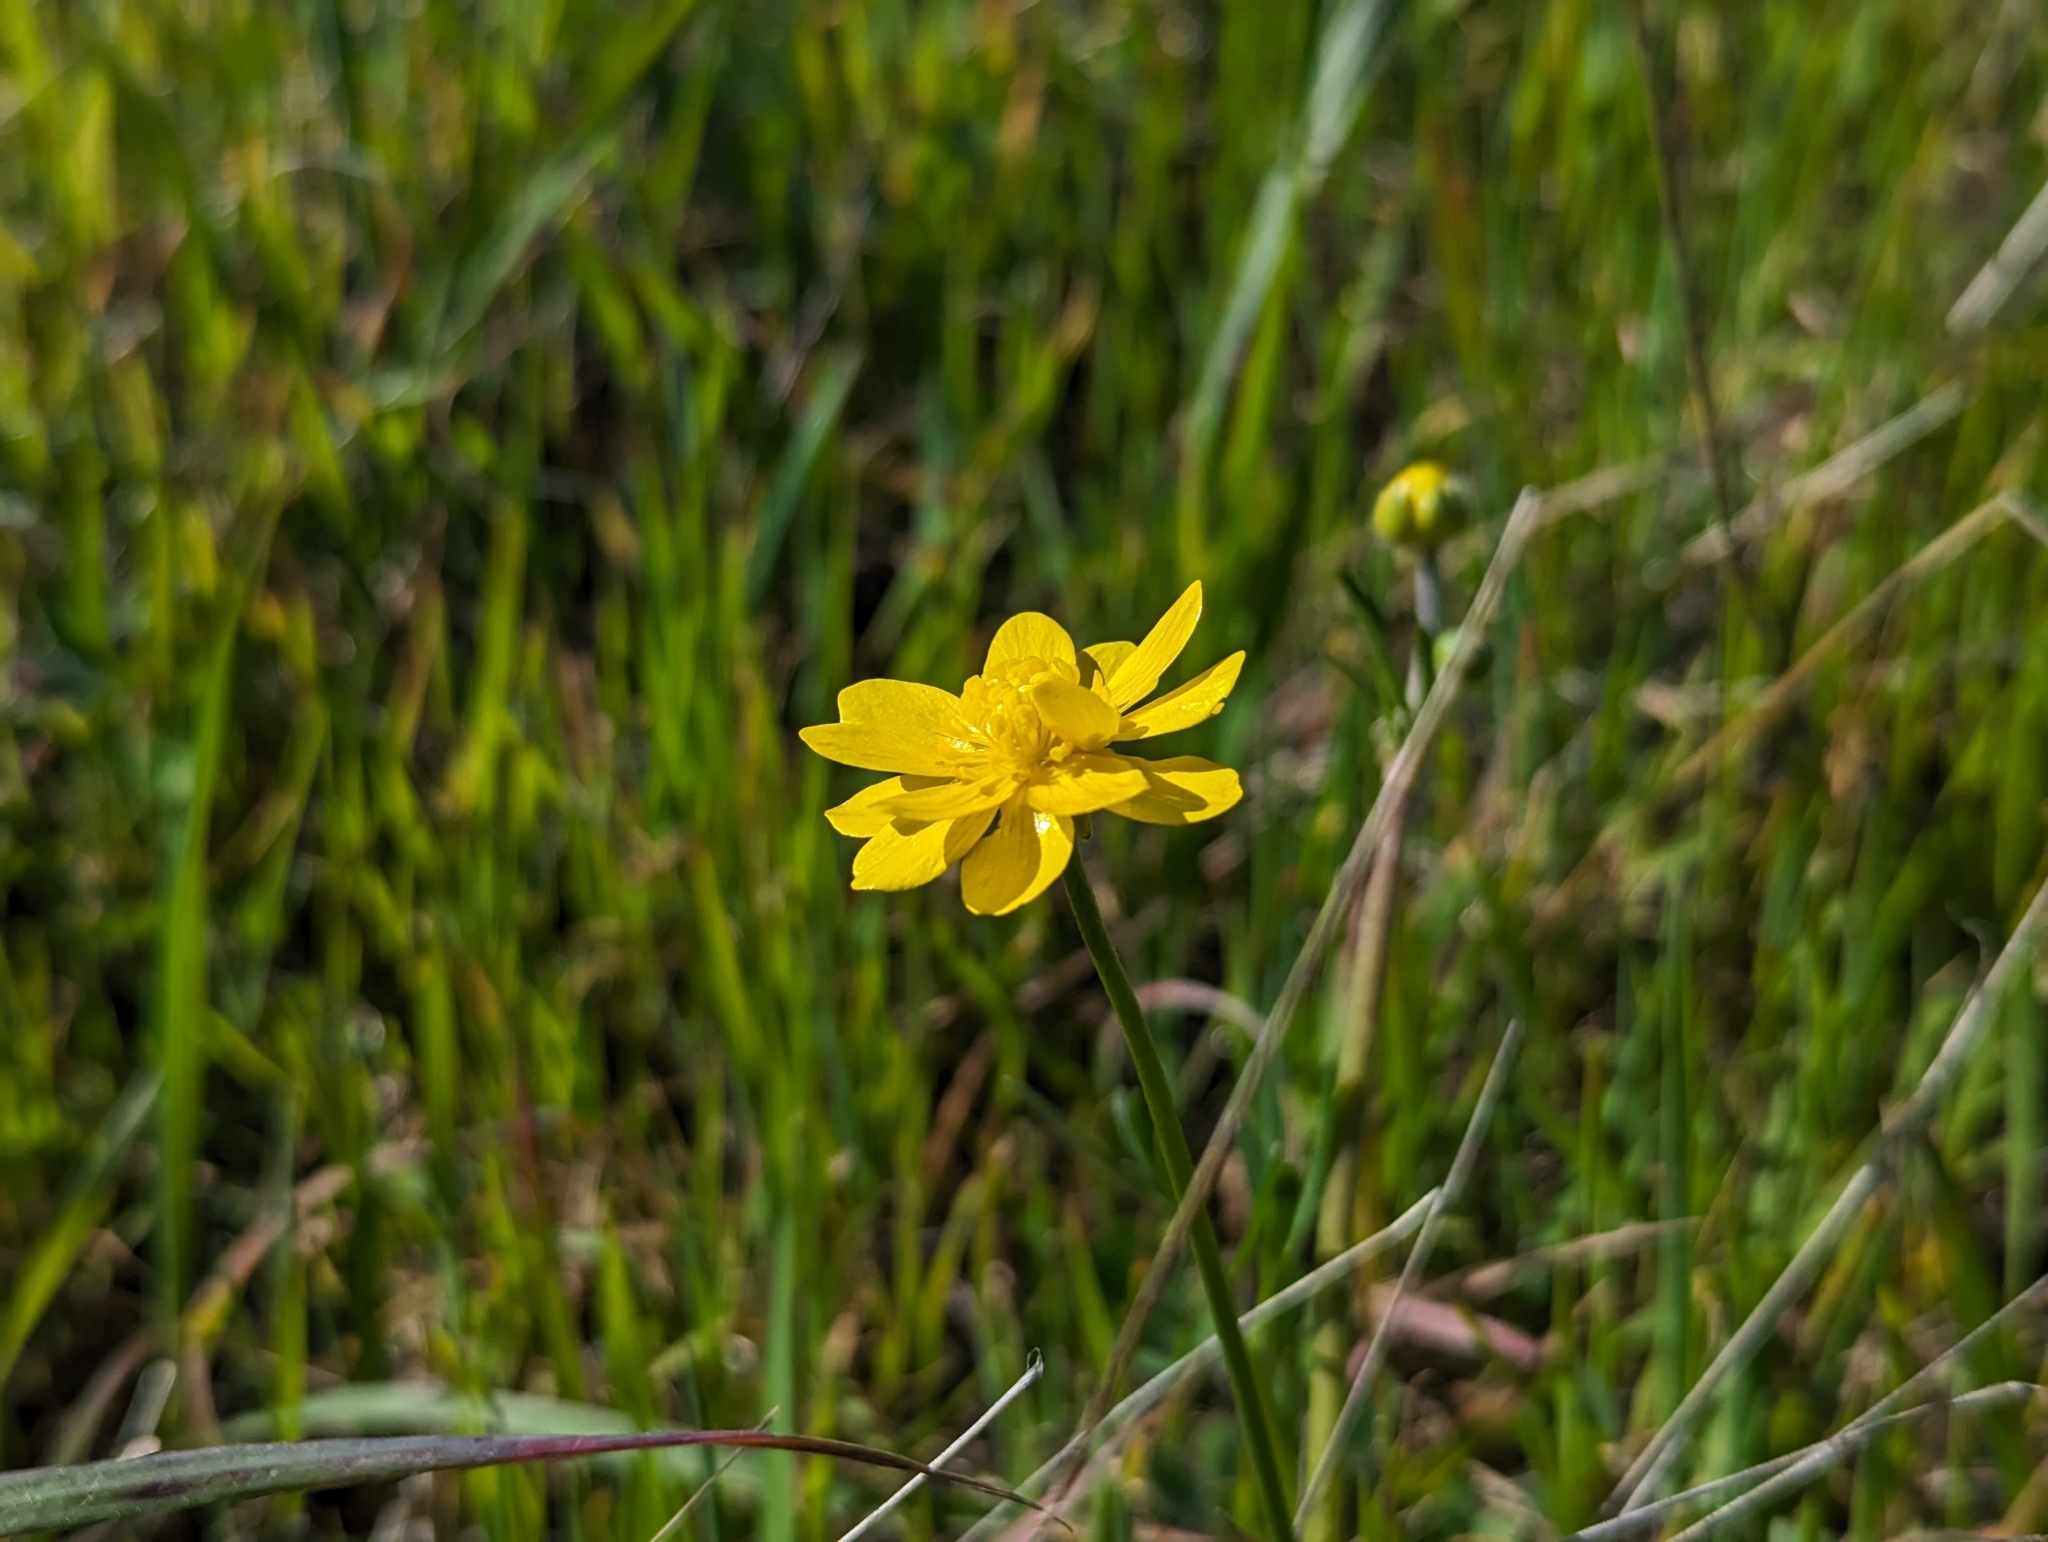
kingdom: Plantae
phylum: Tracheophyta
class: Magnoliopsida
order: Ranunculales
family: Ranunculaceae
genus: Ranunculus
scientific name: Ranunculus californicus
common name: California buttercup
